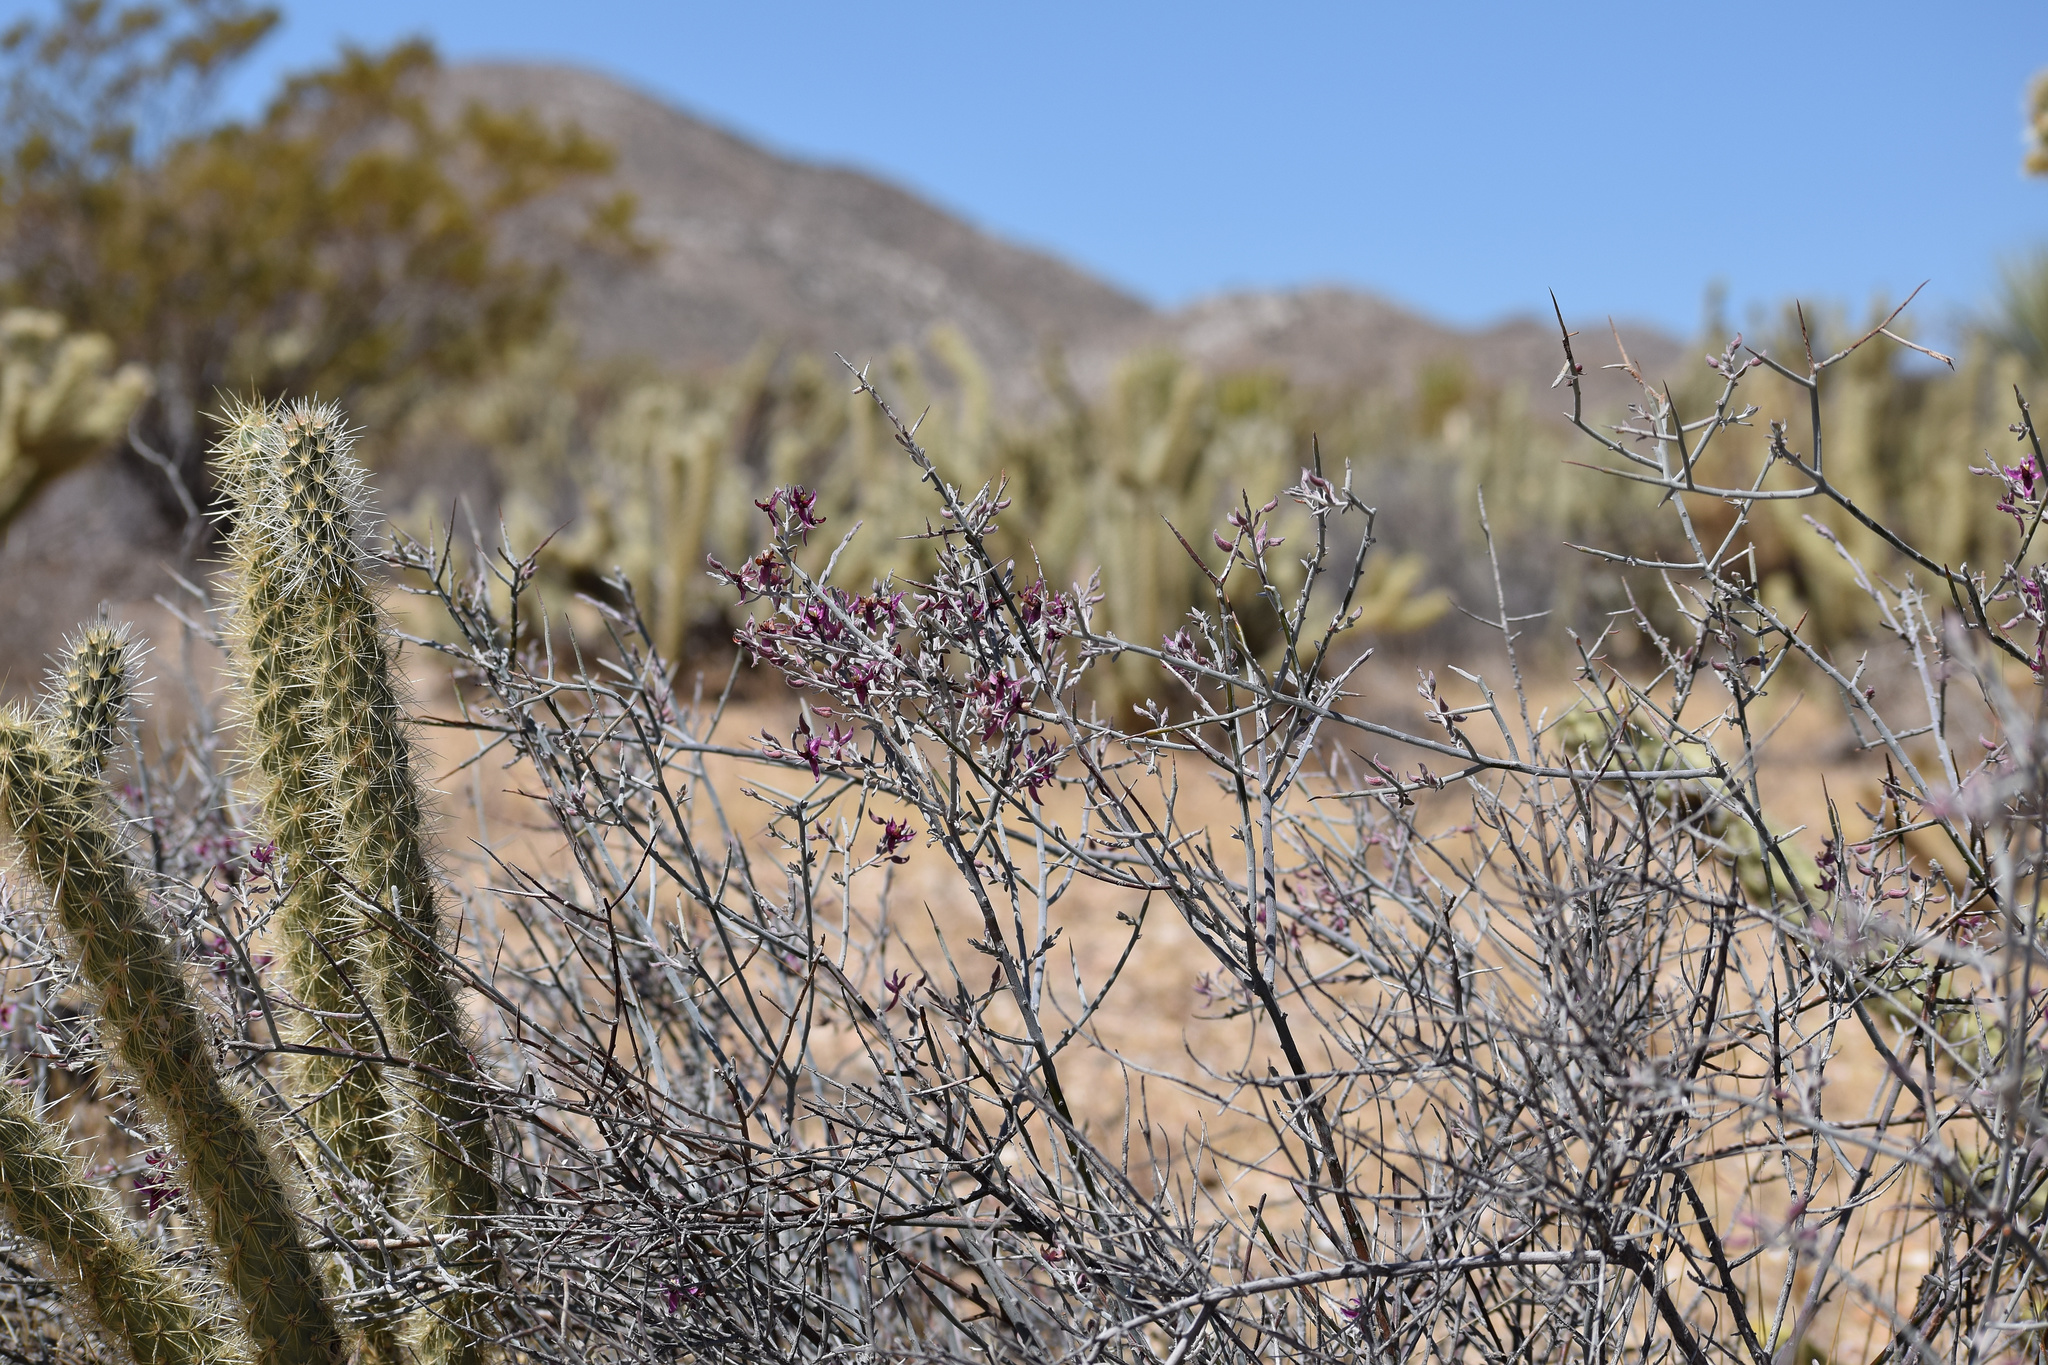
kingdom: Plantae
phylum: Tracheophyta
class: Magnoliopsida
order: Zygophyllales
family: Krameriaceae
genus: Krameria
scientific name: Krameria bicolor
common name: White ratany
